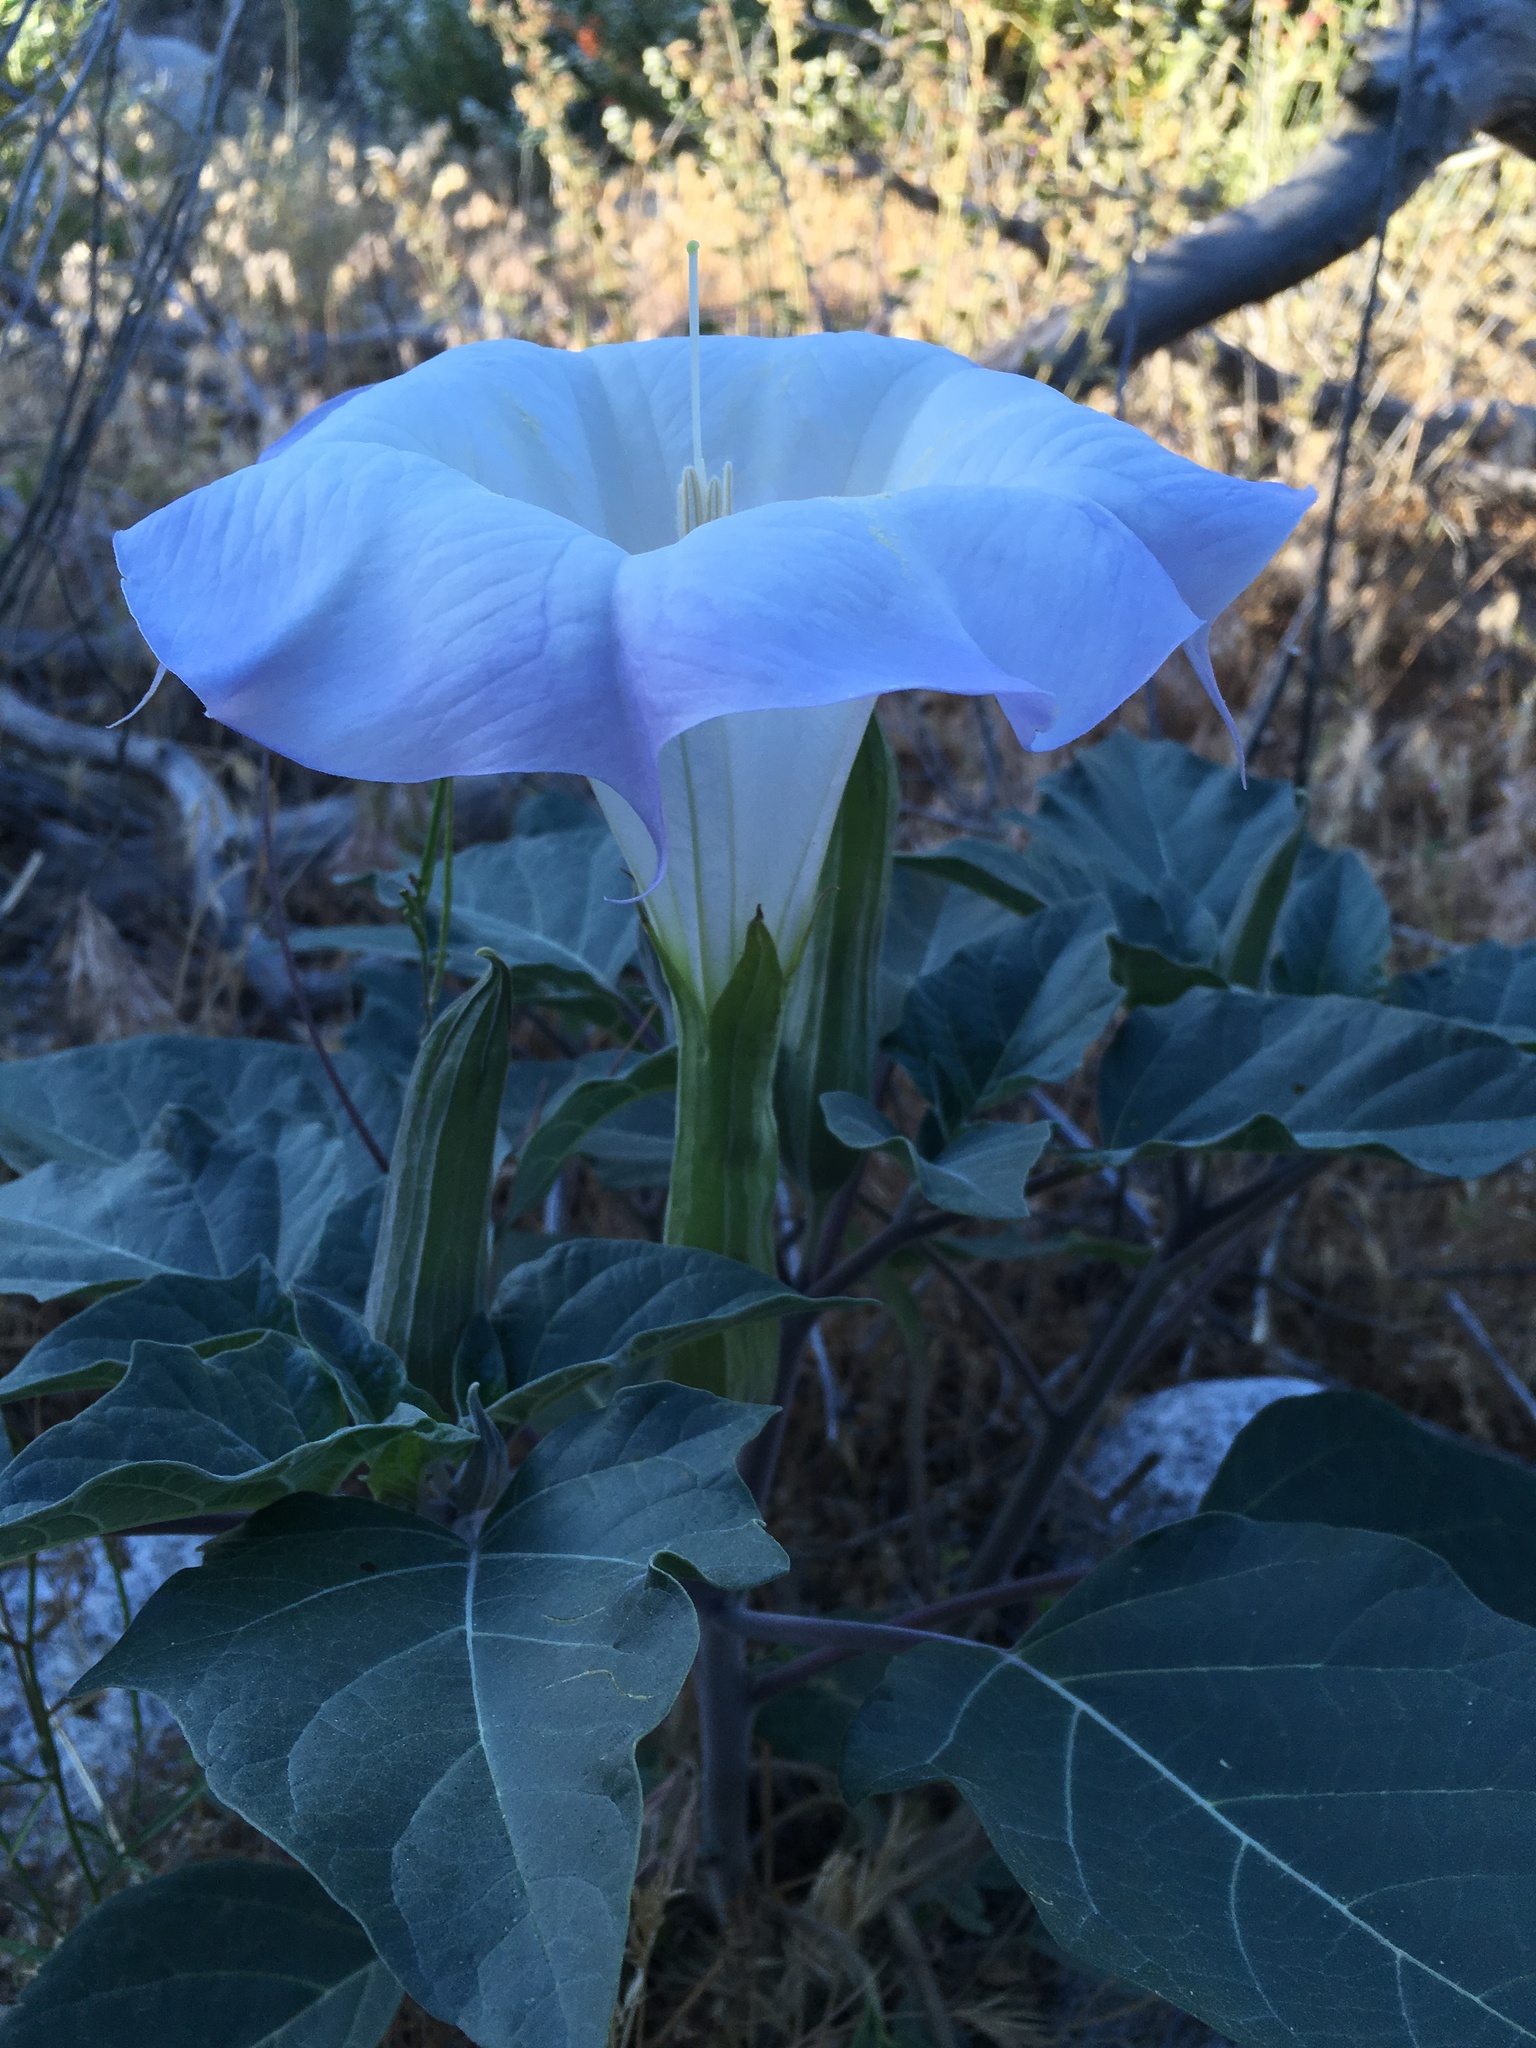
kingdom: Plantae
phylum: Tracheophyta
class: Magnoliopsida
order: Solanales
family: Solanaceae
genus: Datura
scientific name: Datura wrightii
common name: Sacred thorn-apple
